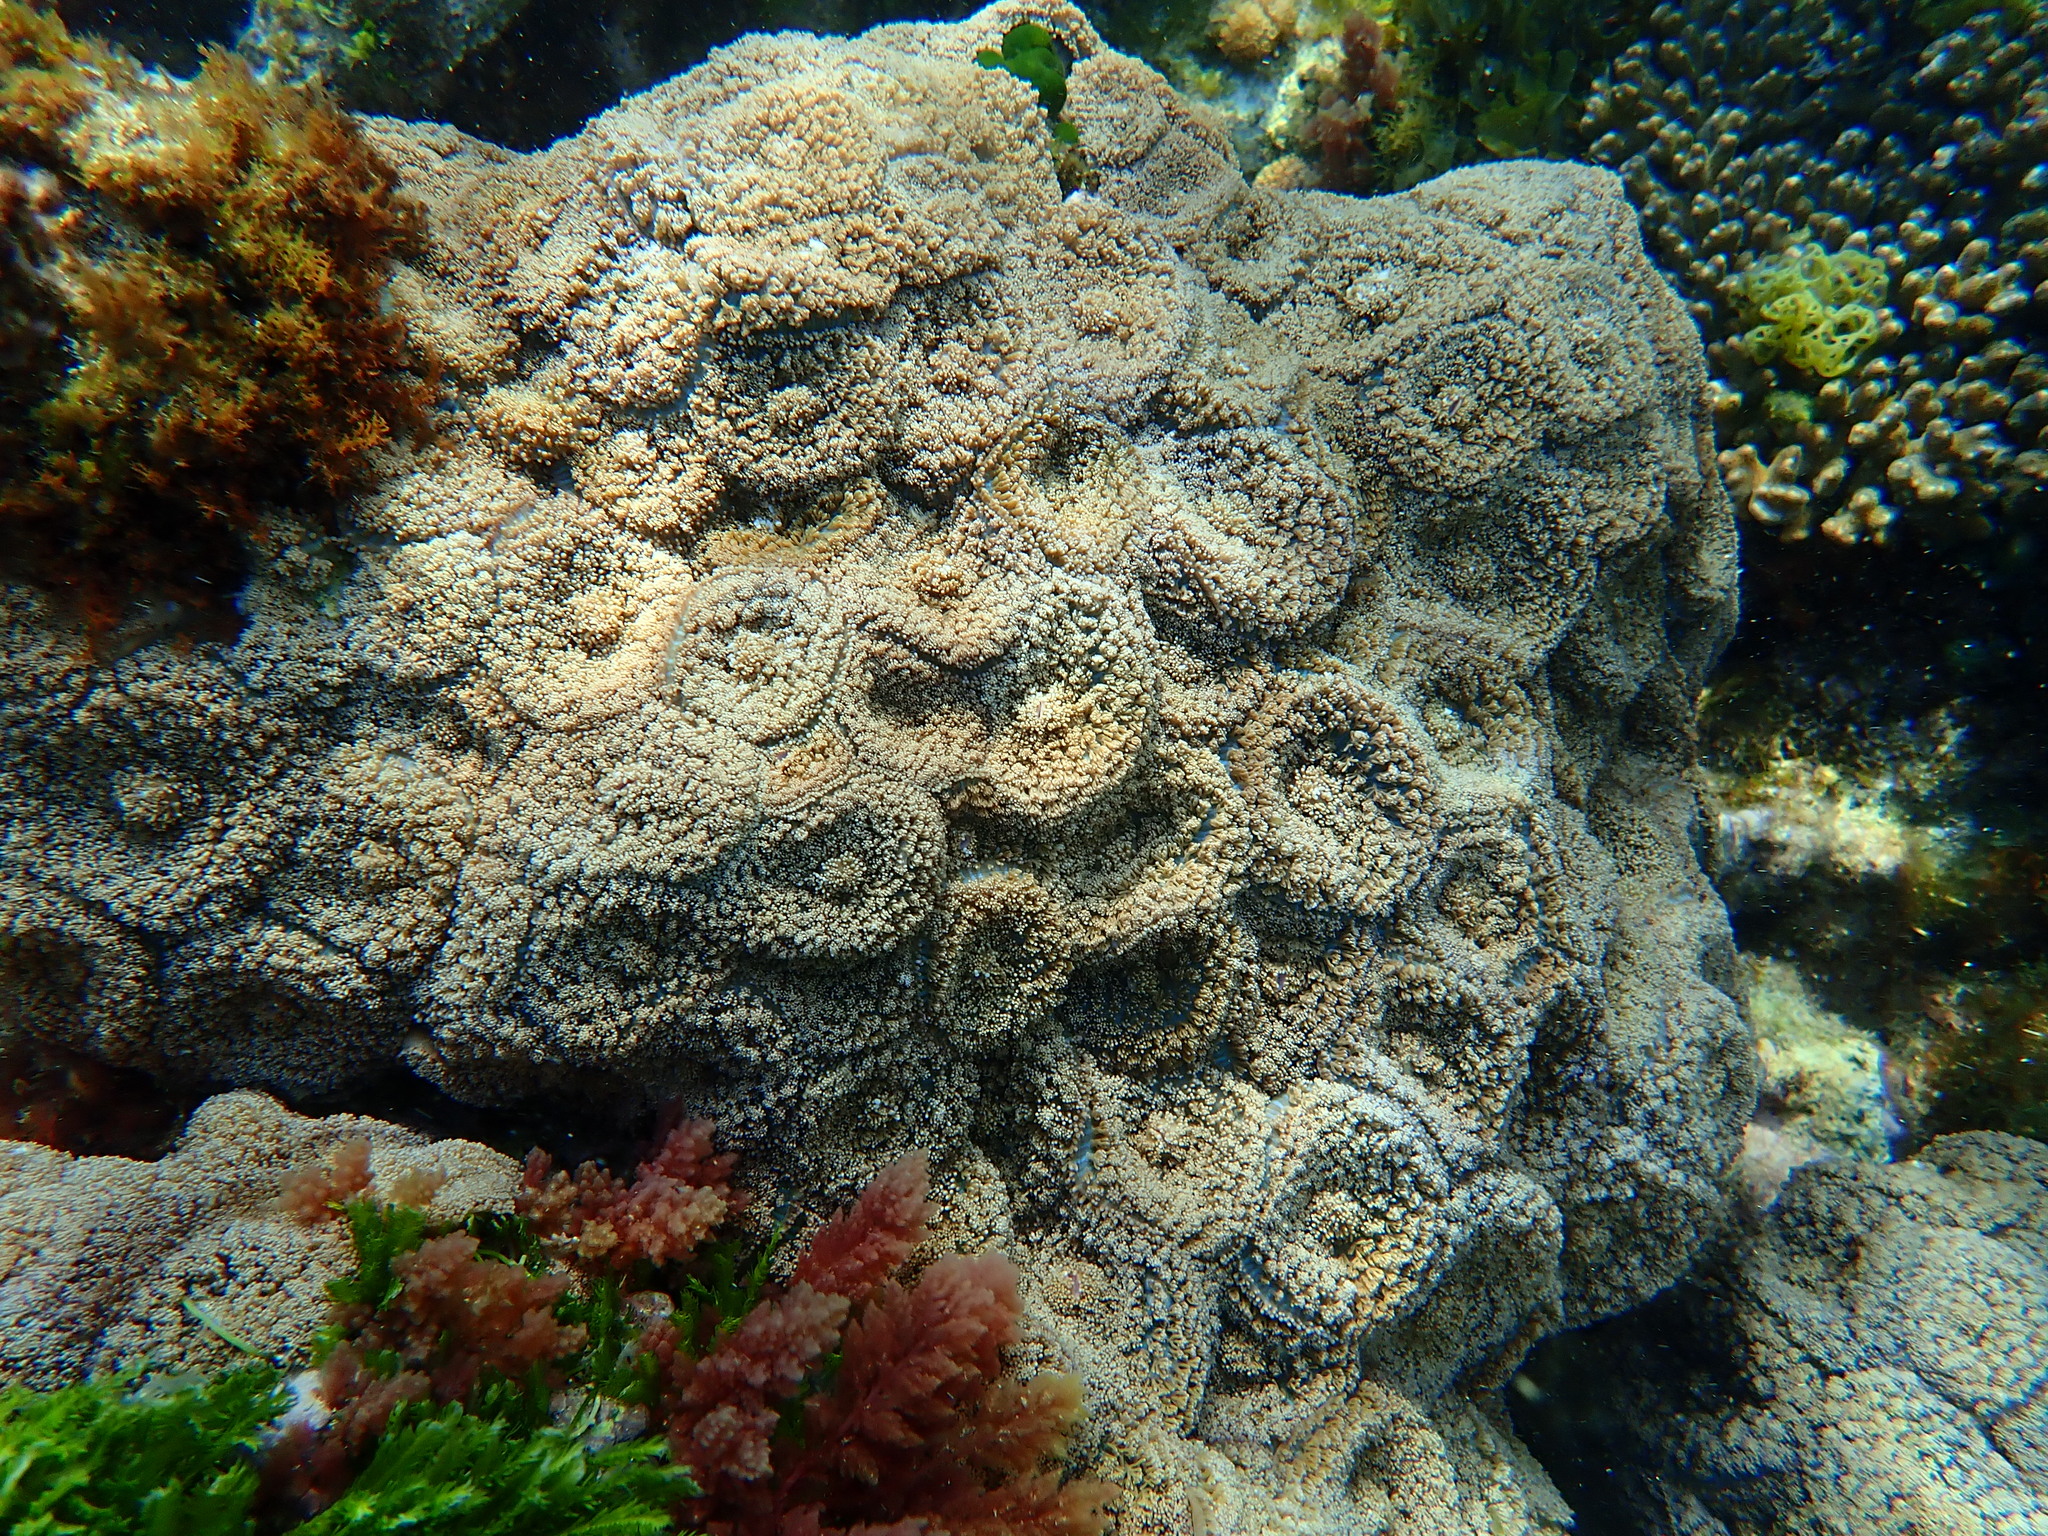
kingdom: Animalia
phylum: Cnidaria
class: Anthozoa
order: Corallimorpharia
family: Discosomidae
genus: Rhodactis
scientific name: Rhodactis rhodostoma
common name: Red-mouth mushroom anemone
